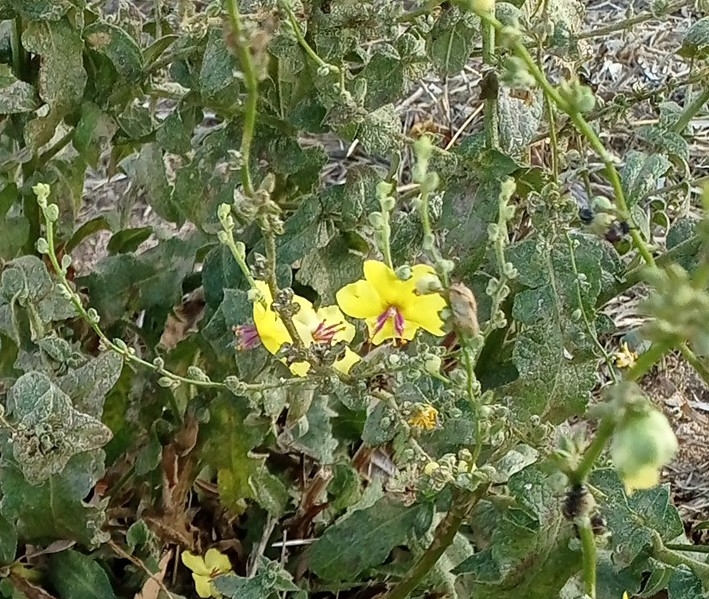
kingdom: Plantae
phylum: Tracheophyta
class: Magnoliopsida
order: Lamiales
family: Scrophulariaceae
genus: Verbascum
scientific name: Verbascum sinuatum
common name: Wavyleaf mullein
